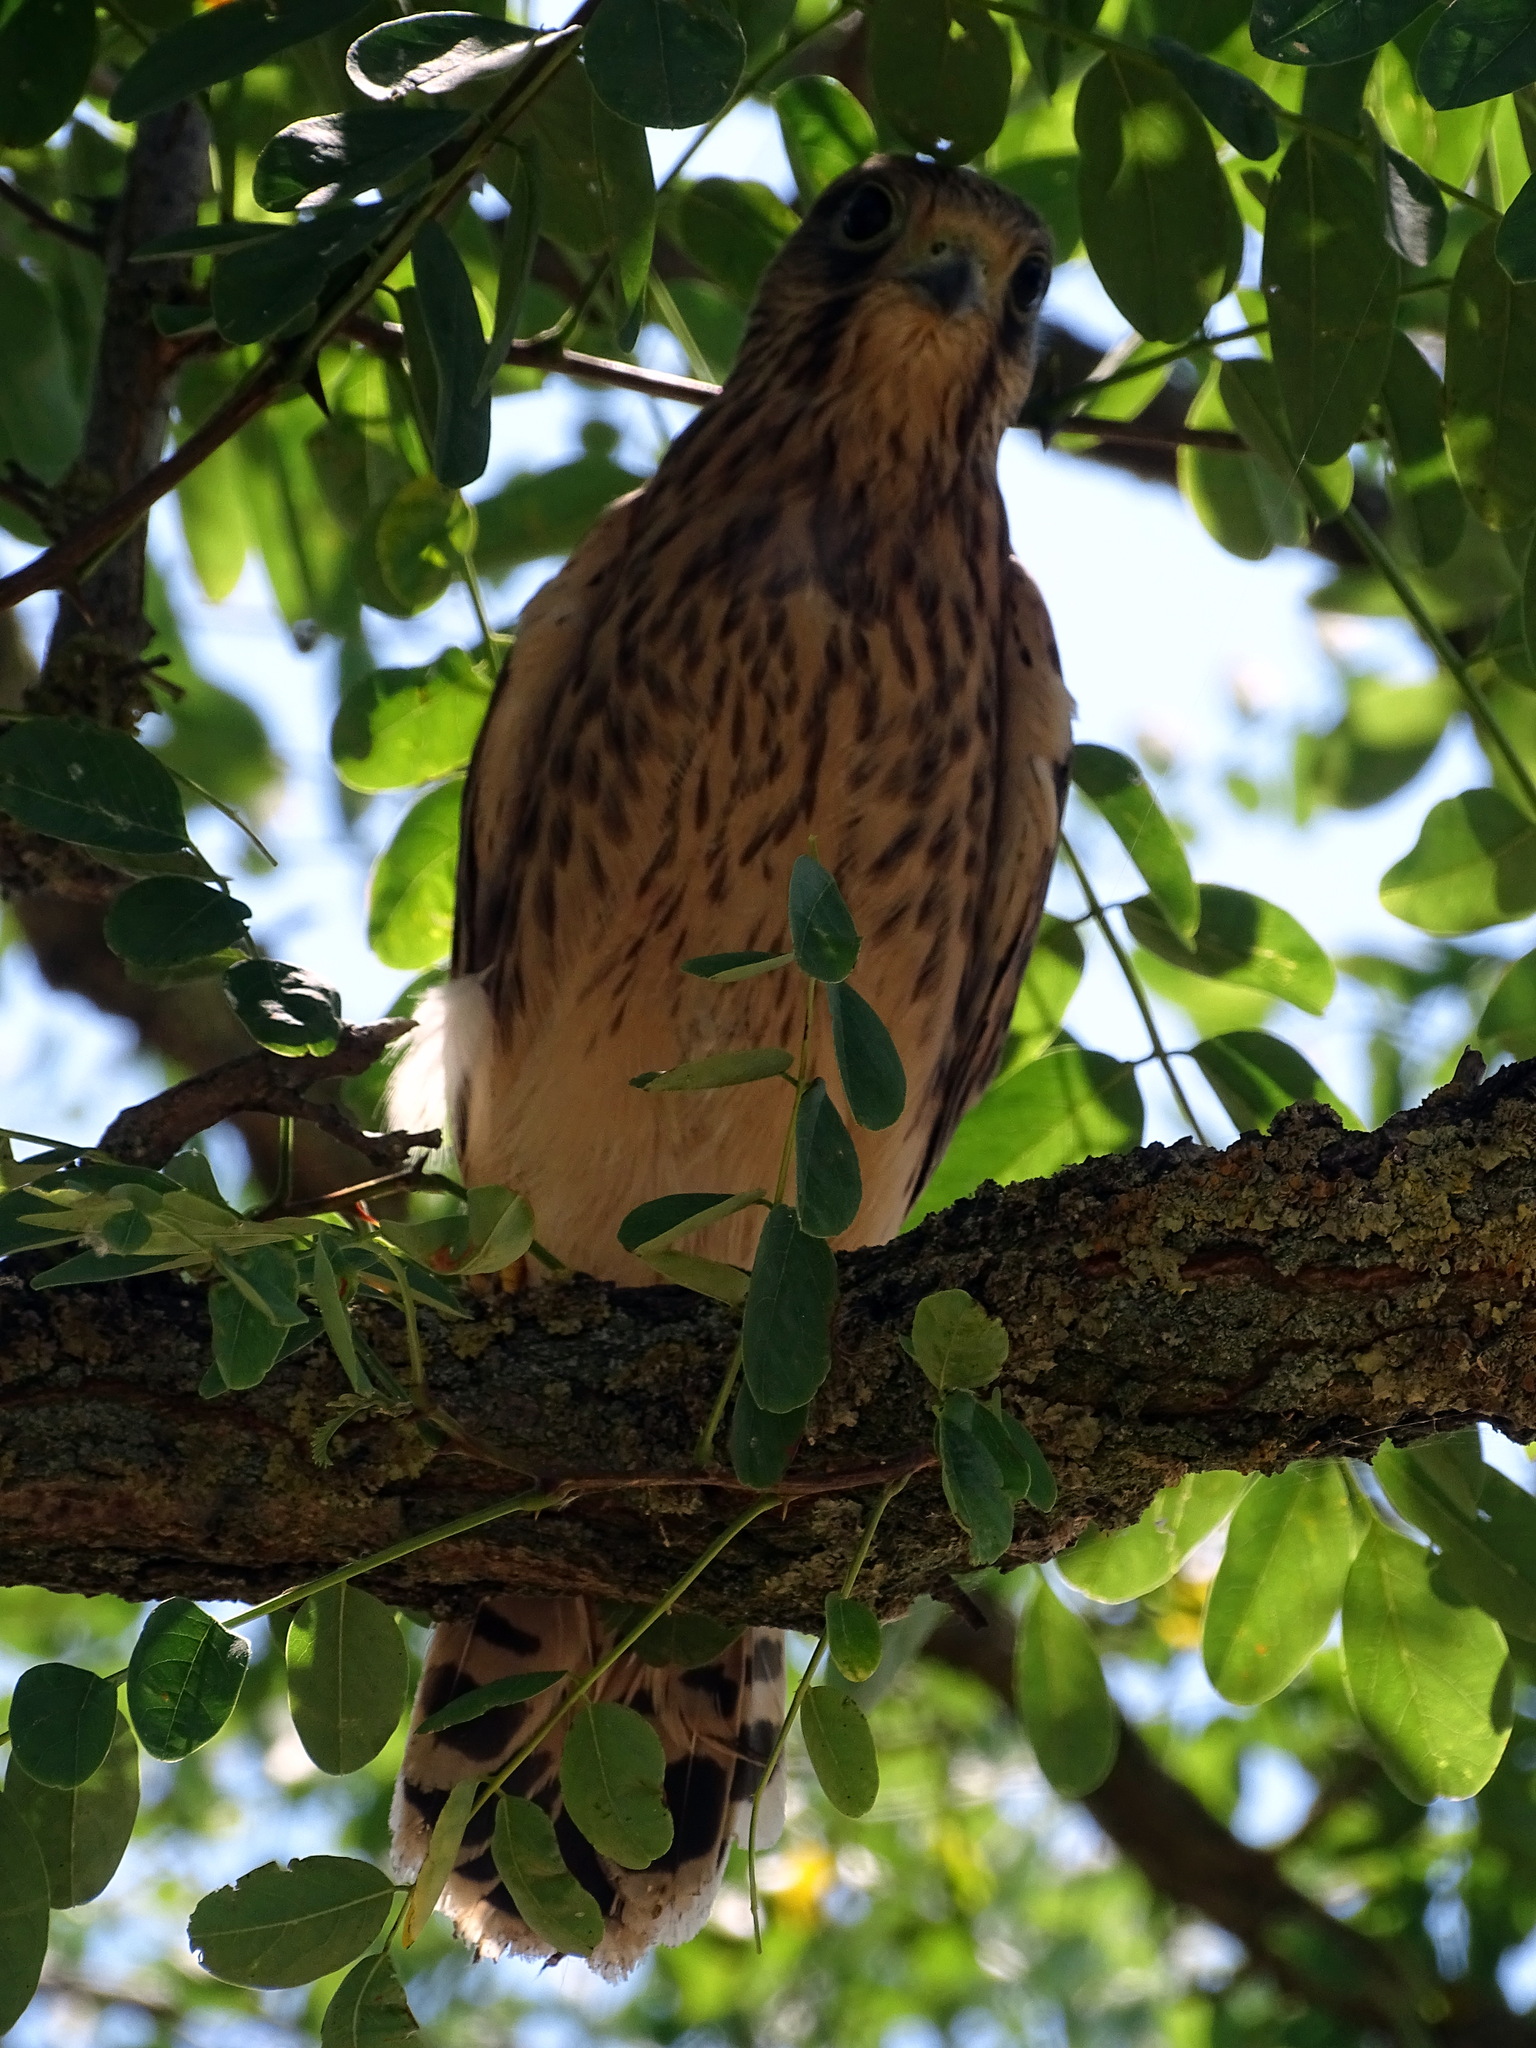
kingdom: Animalia
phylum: Chordata
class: Aves
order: Falconiformes
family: Falconidae
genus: Falco
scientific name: Falco tinnunculus
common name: Common kestrel
